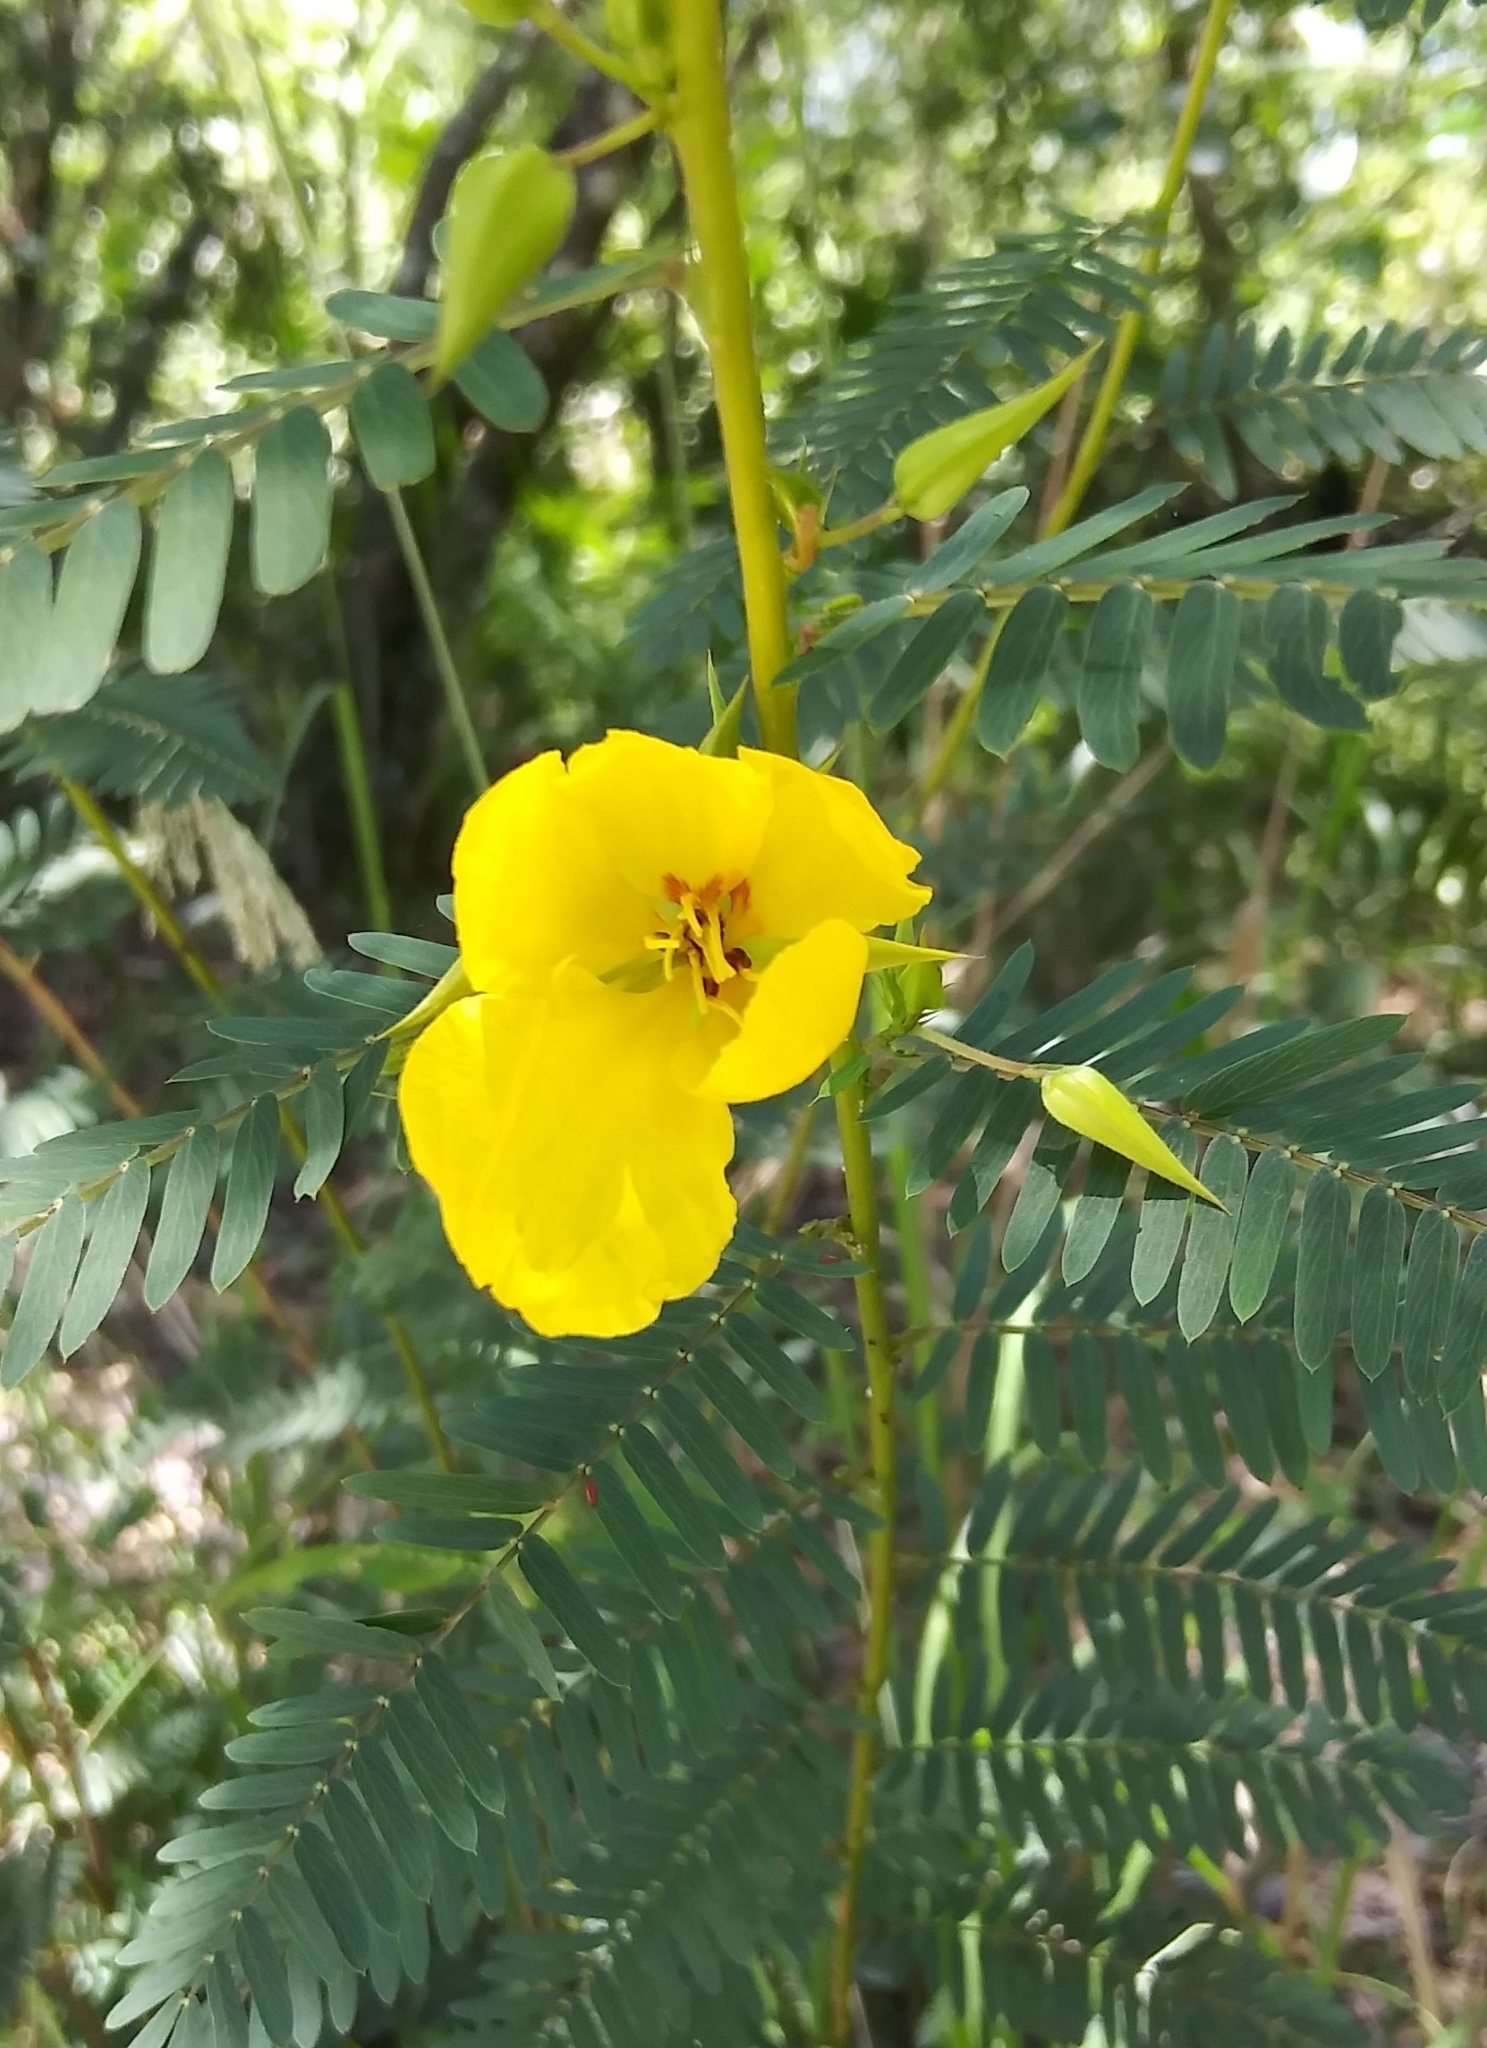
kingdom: Plantae
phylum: Tracheophyta
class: Magnoliopsida
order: Fabales
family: Fabaceae
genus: Chamaecrista
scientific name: Chamaecrista fasciculata
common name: Golden cassia
